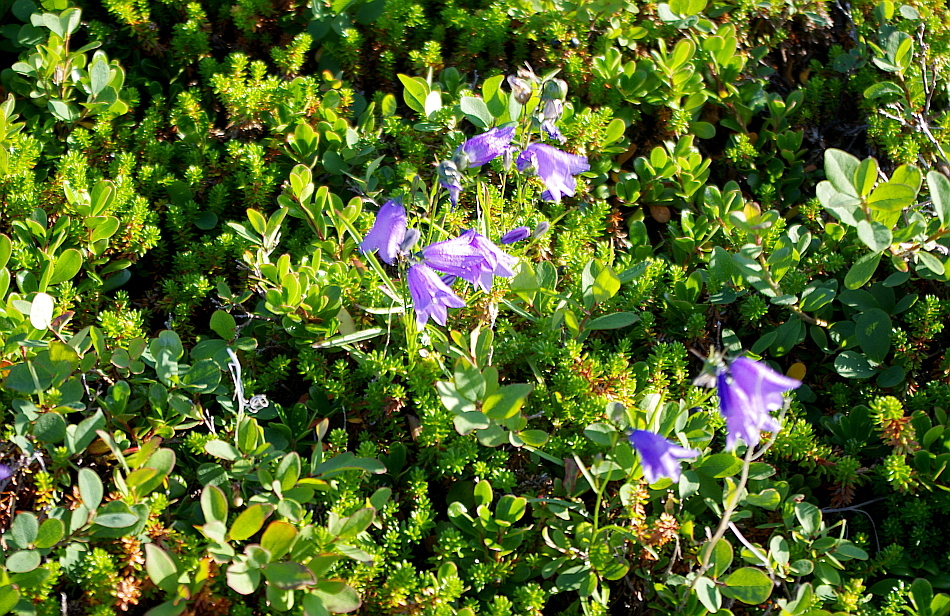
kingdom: Plantae
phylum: Tracheophyta
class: Magnoliopsida
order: Asterales
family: Campanulaceae
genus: Campanula
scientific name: Campanula rotundifolia
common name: Harebell
